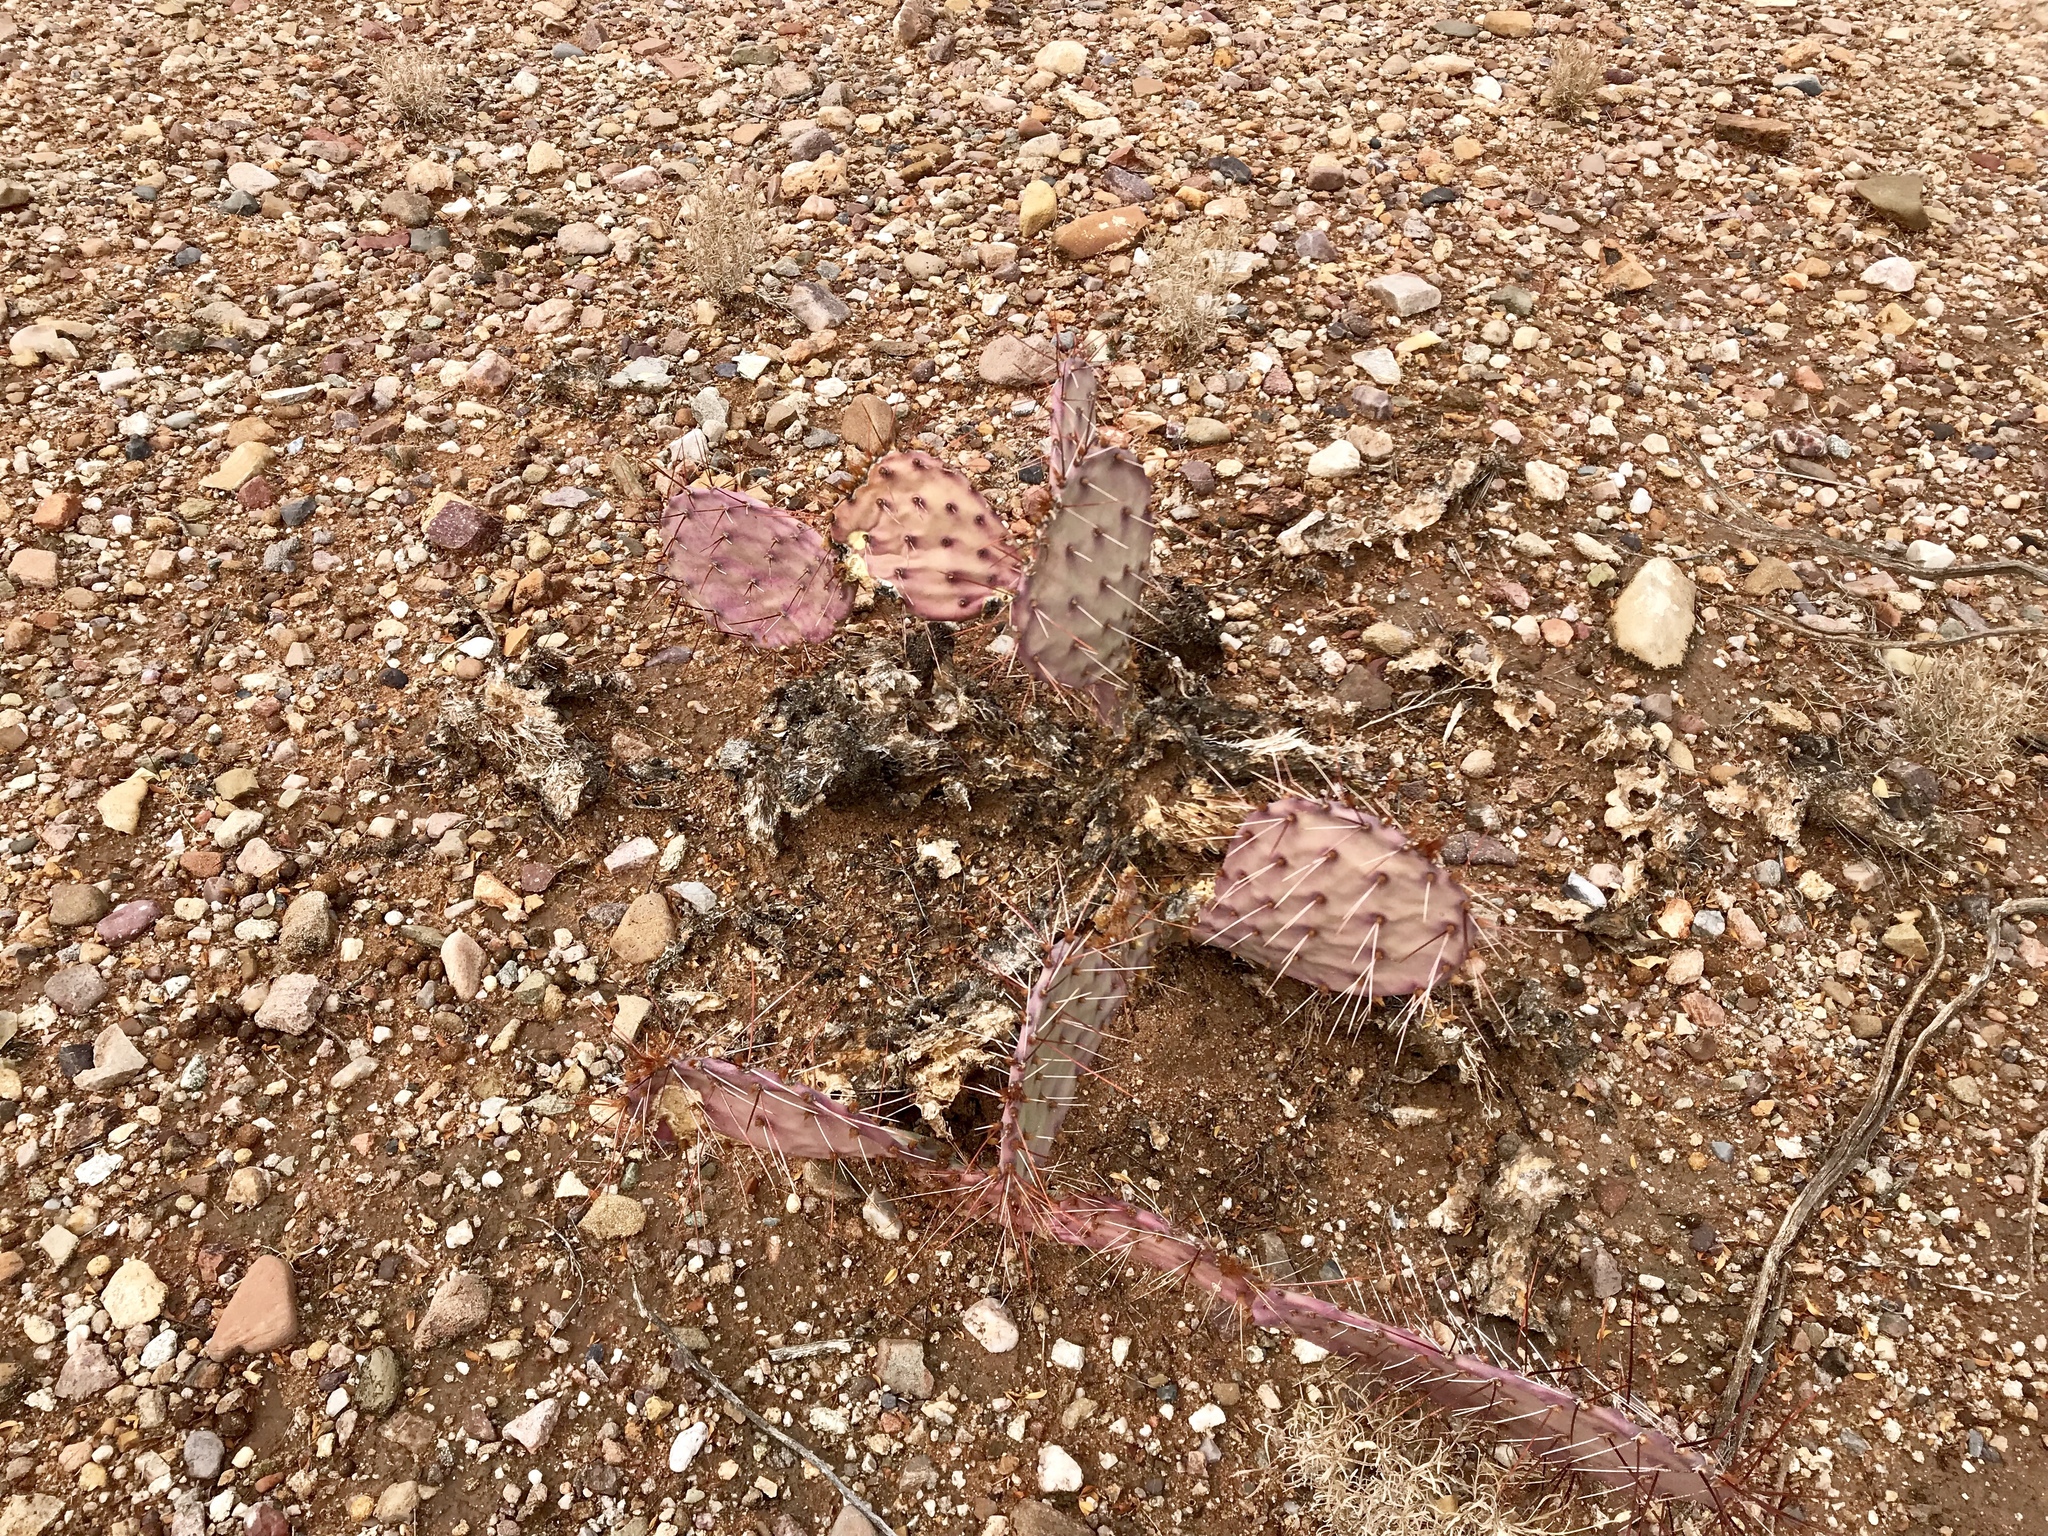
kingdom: Plantae
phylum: Tracheophyta
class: Magnoliopsida
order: Caryophyllales
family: Cactaceae
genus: Opuntia
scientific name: Opuntia macrocentra
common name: Purple prickly-pear
